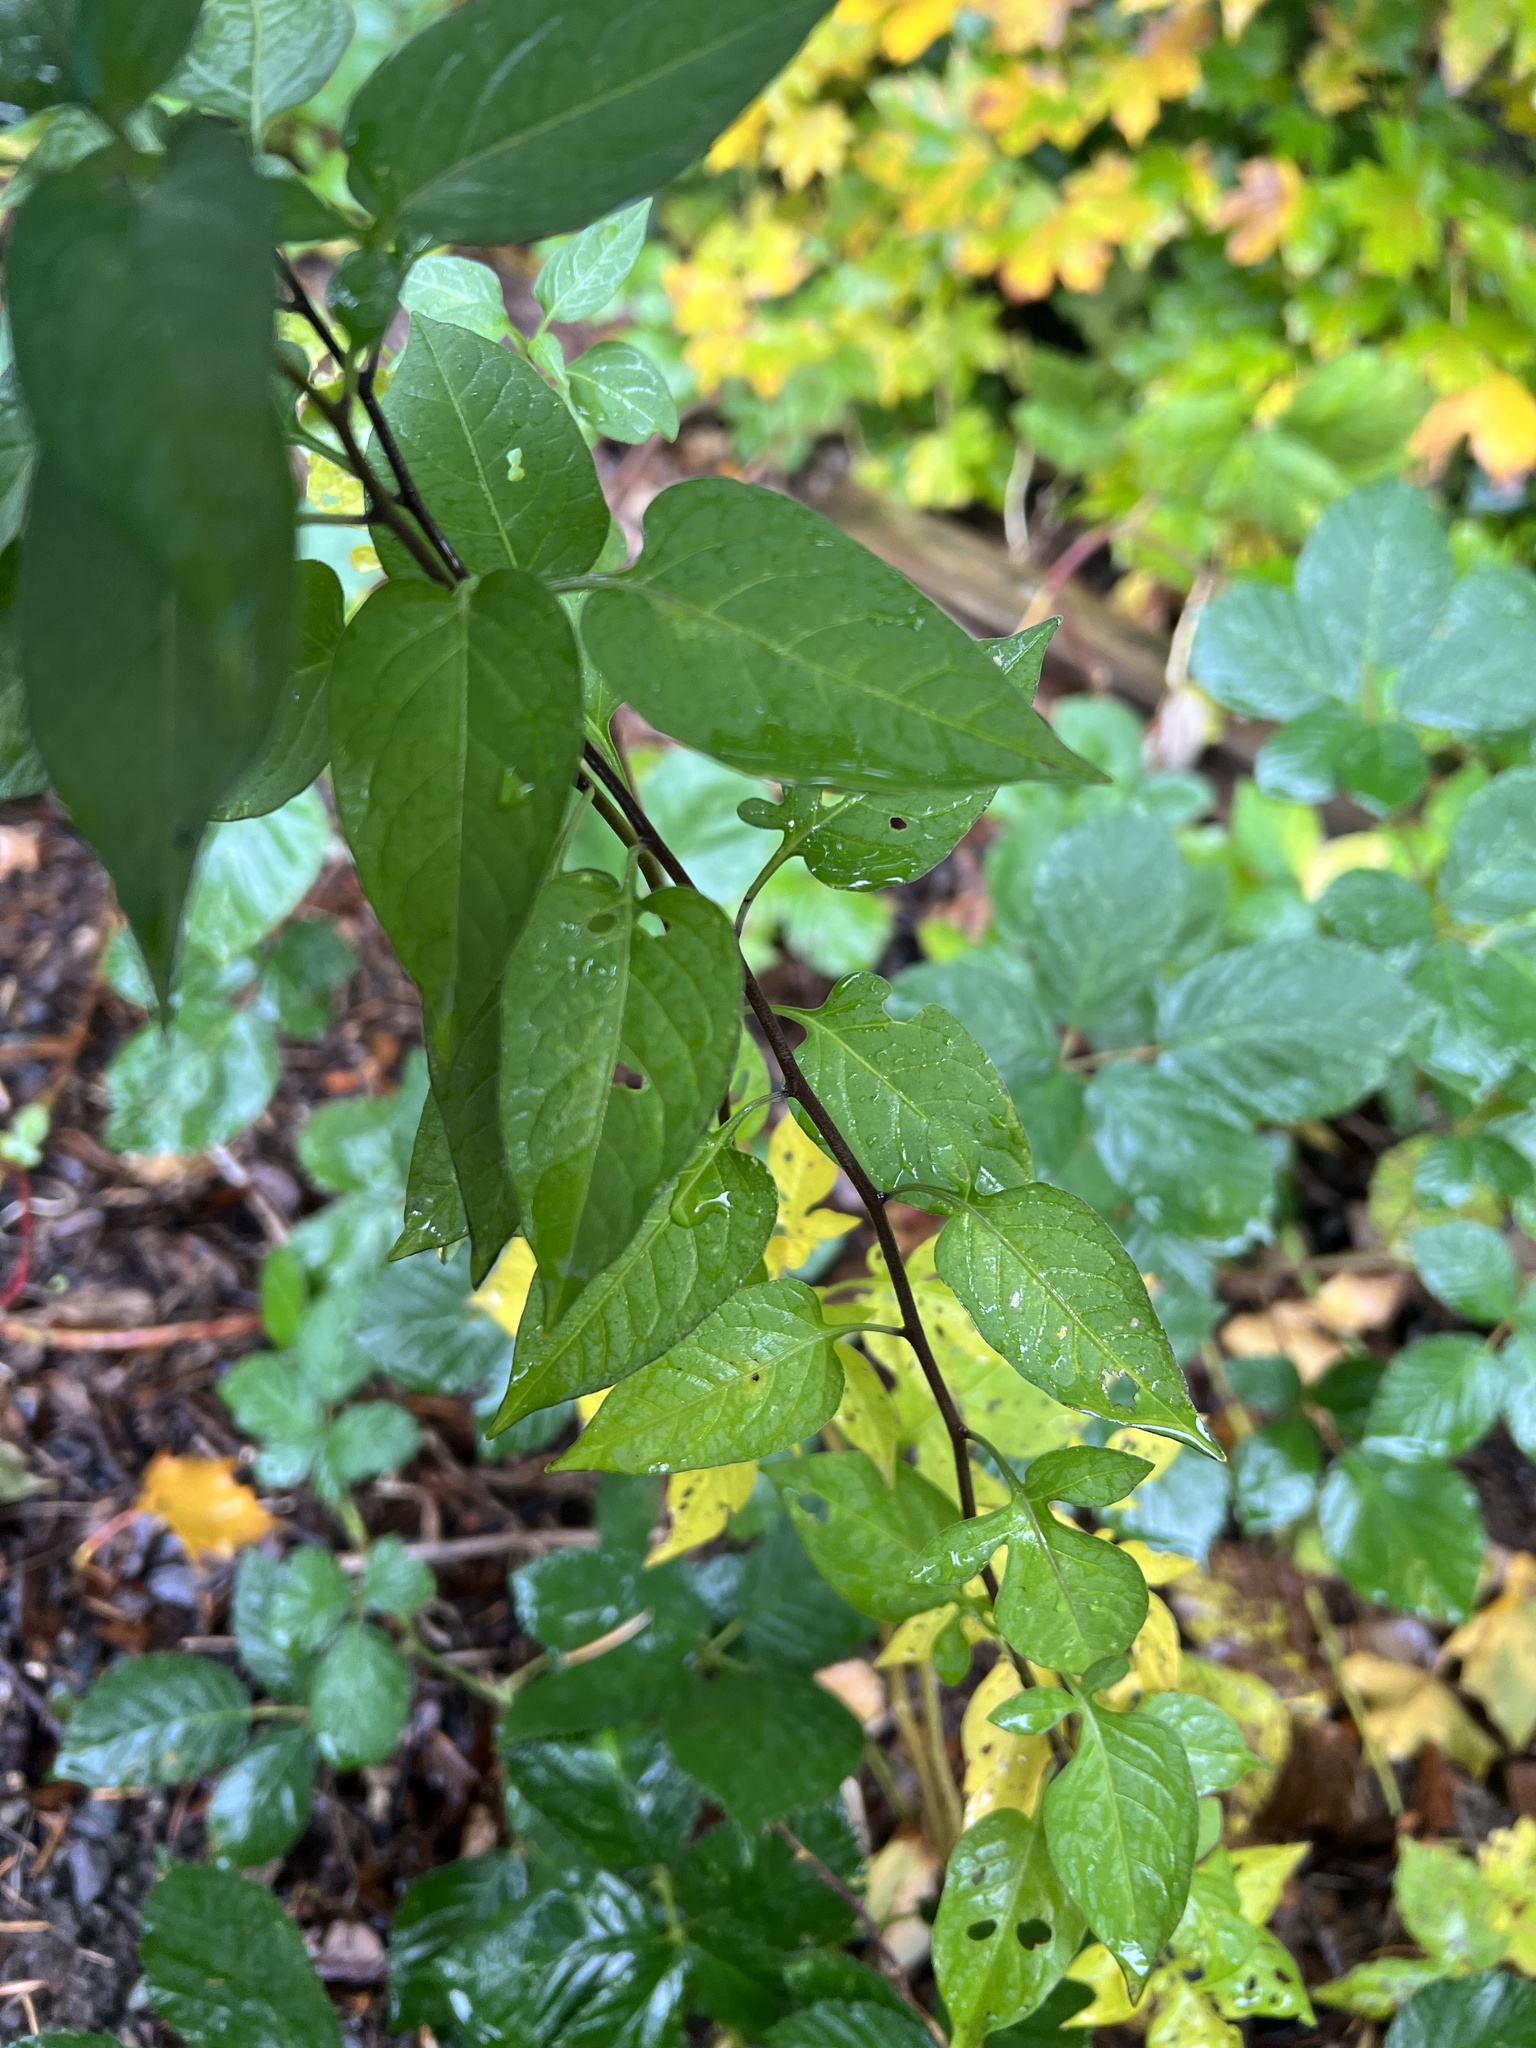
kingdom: Plantae
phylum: Tracheophyta
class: Magnoliopsida
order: Solanales
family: Solanaceae
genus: Solanum
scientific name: Solanum dulcamara
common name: Climbing nightshade
